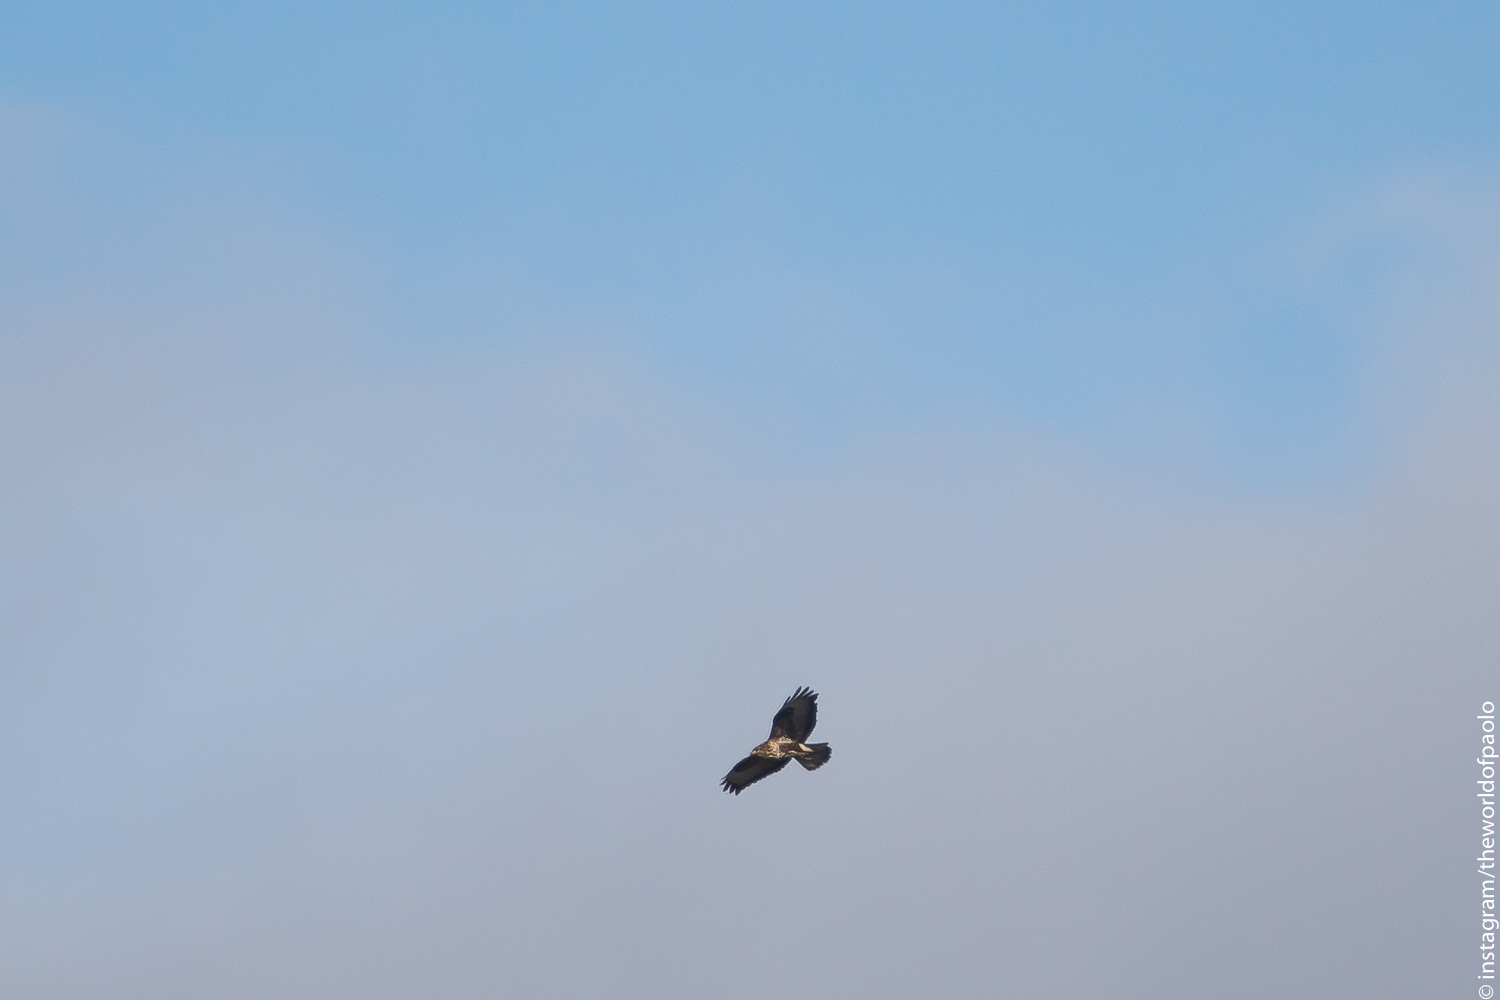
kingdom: Animalia
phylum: Chordata
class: Aves
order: Accipitriformes
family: Accipitridae
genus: Buteo
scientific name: Buteo buteo
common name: Common buzzard
